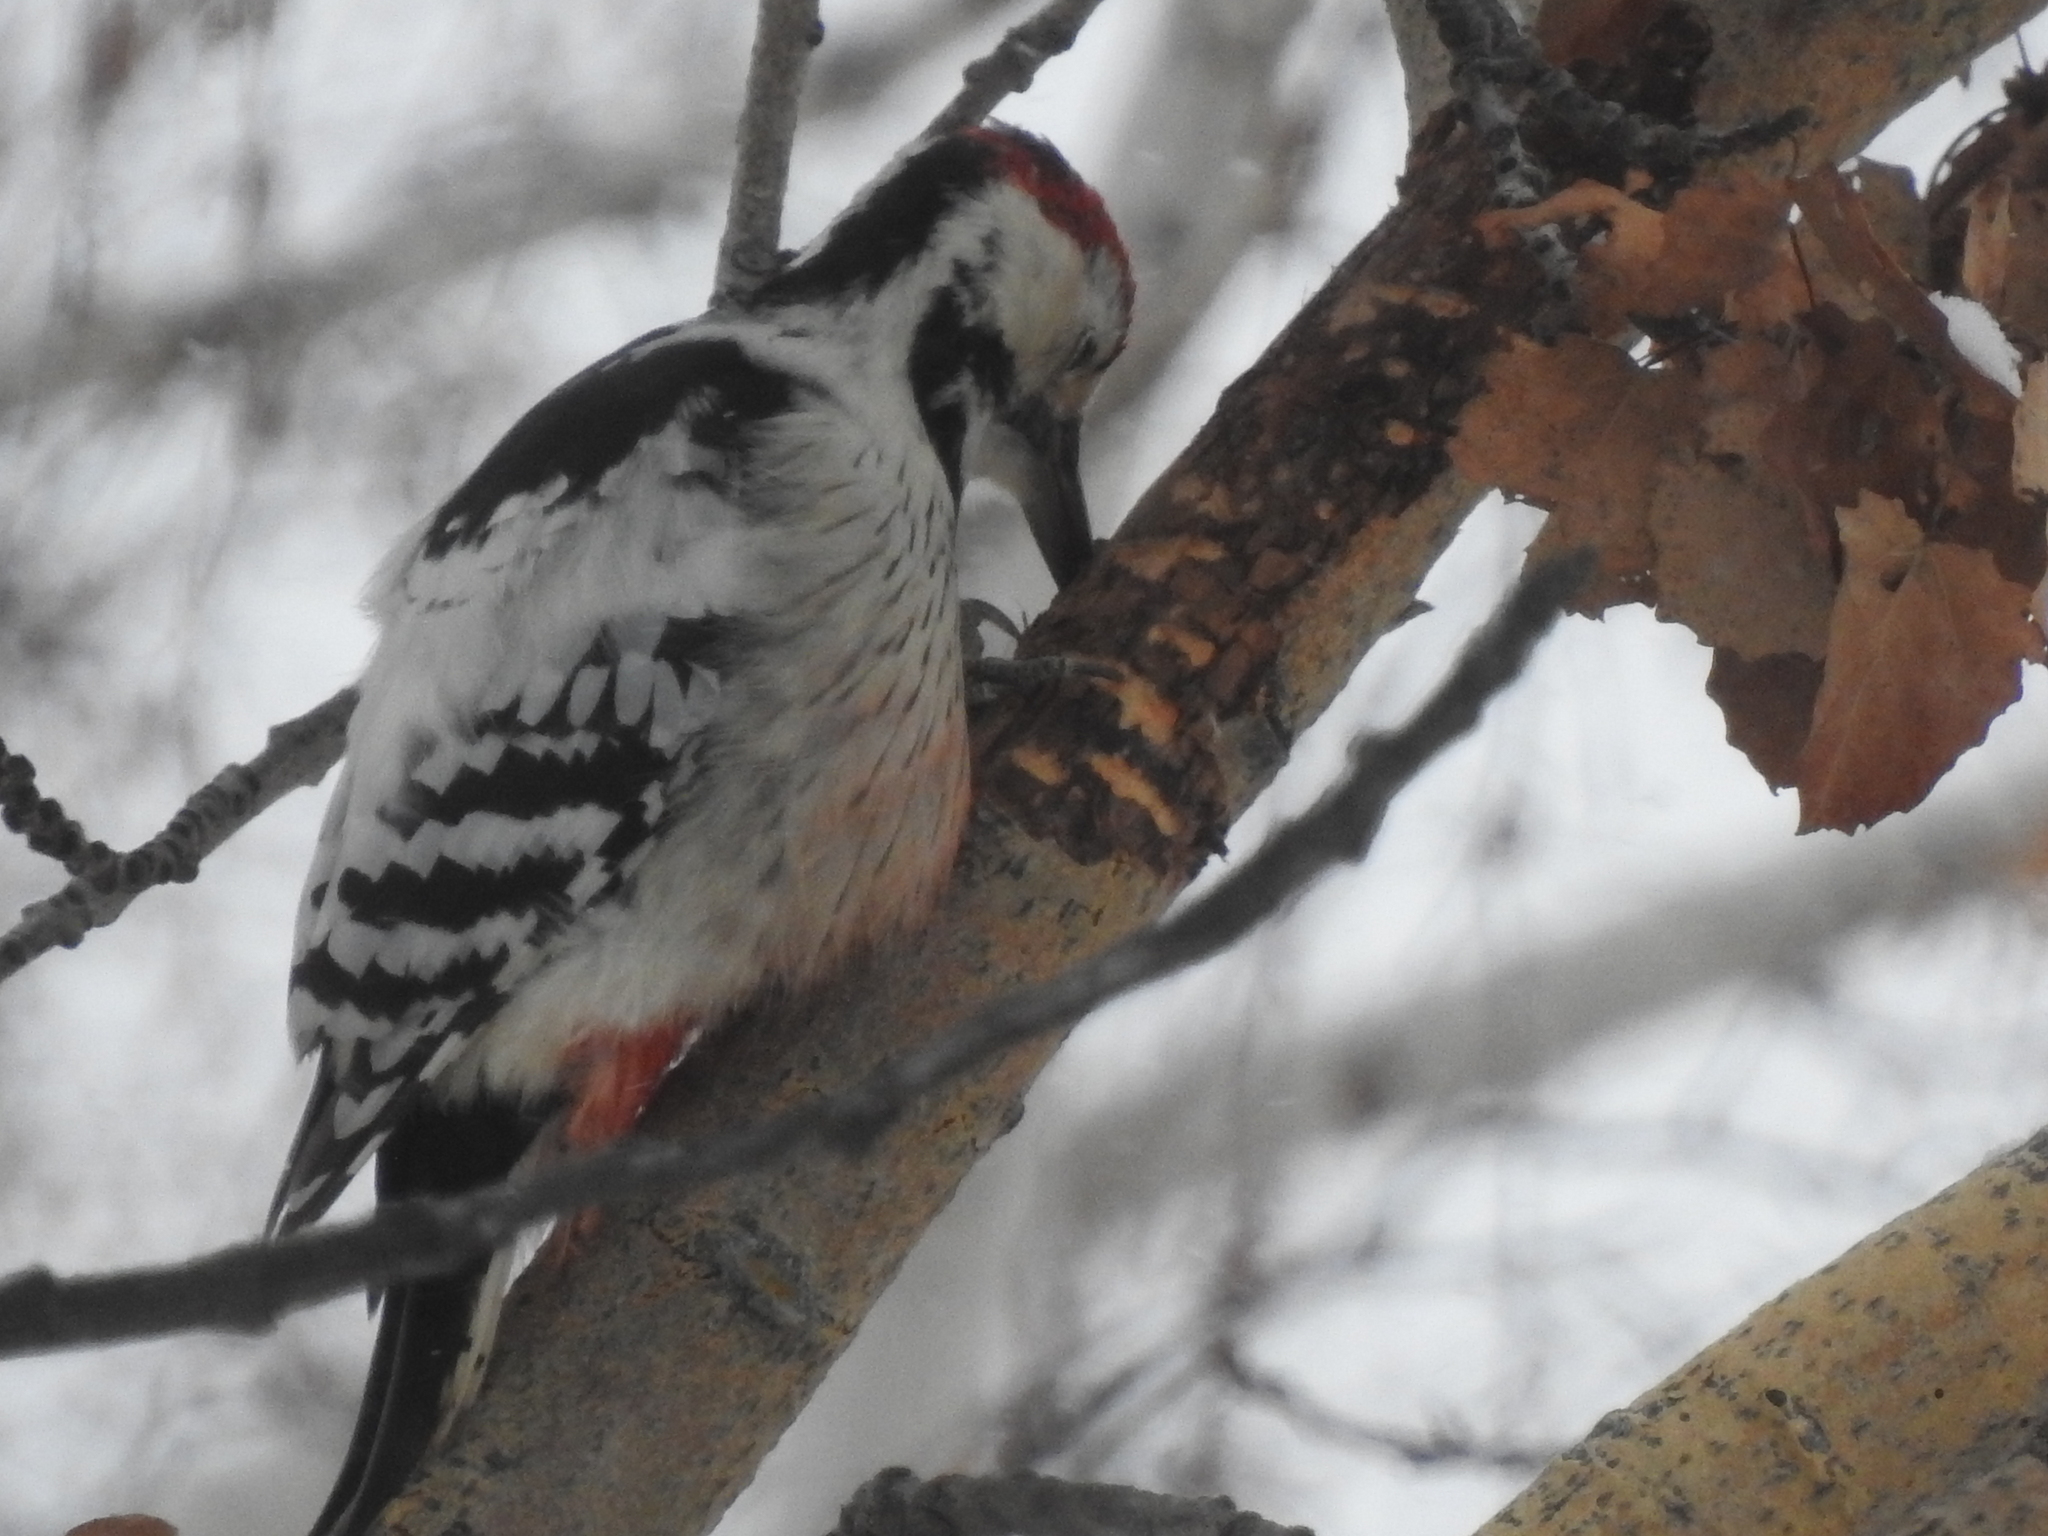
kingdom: Animalia
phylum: Chordata
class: Aves
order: Piciformes
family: Picidae
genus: Dendrocopos
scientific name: Dendrocopos leucotos
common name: White-backed woodpecker
